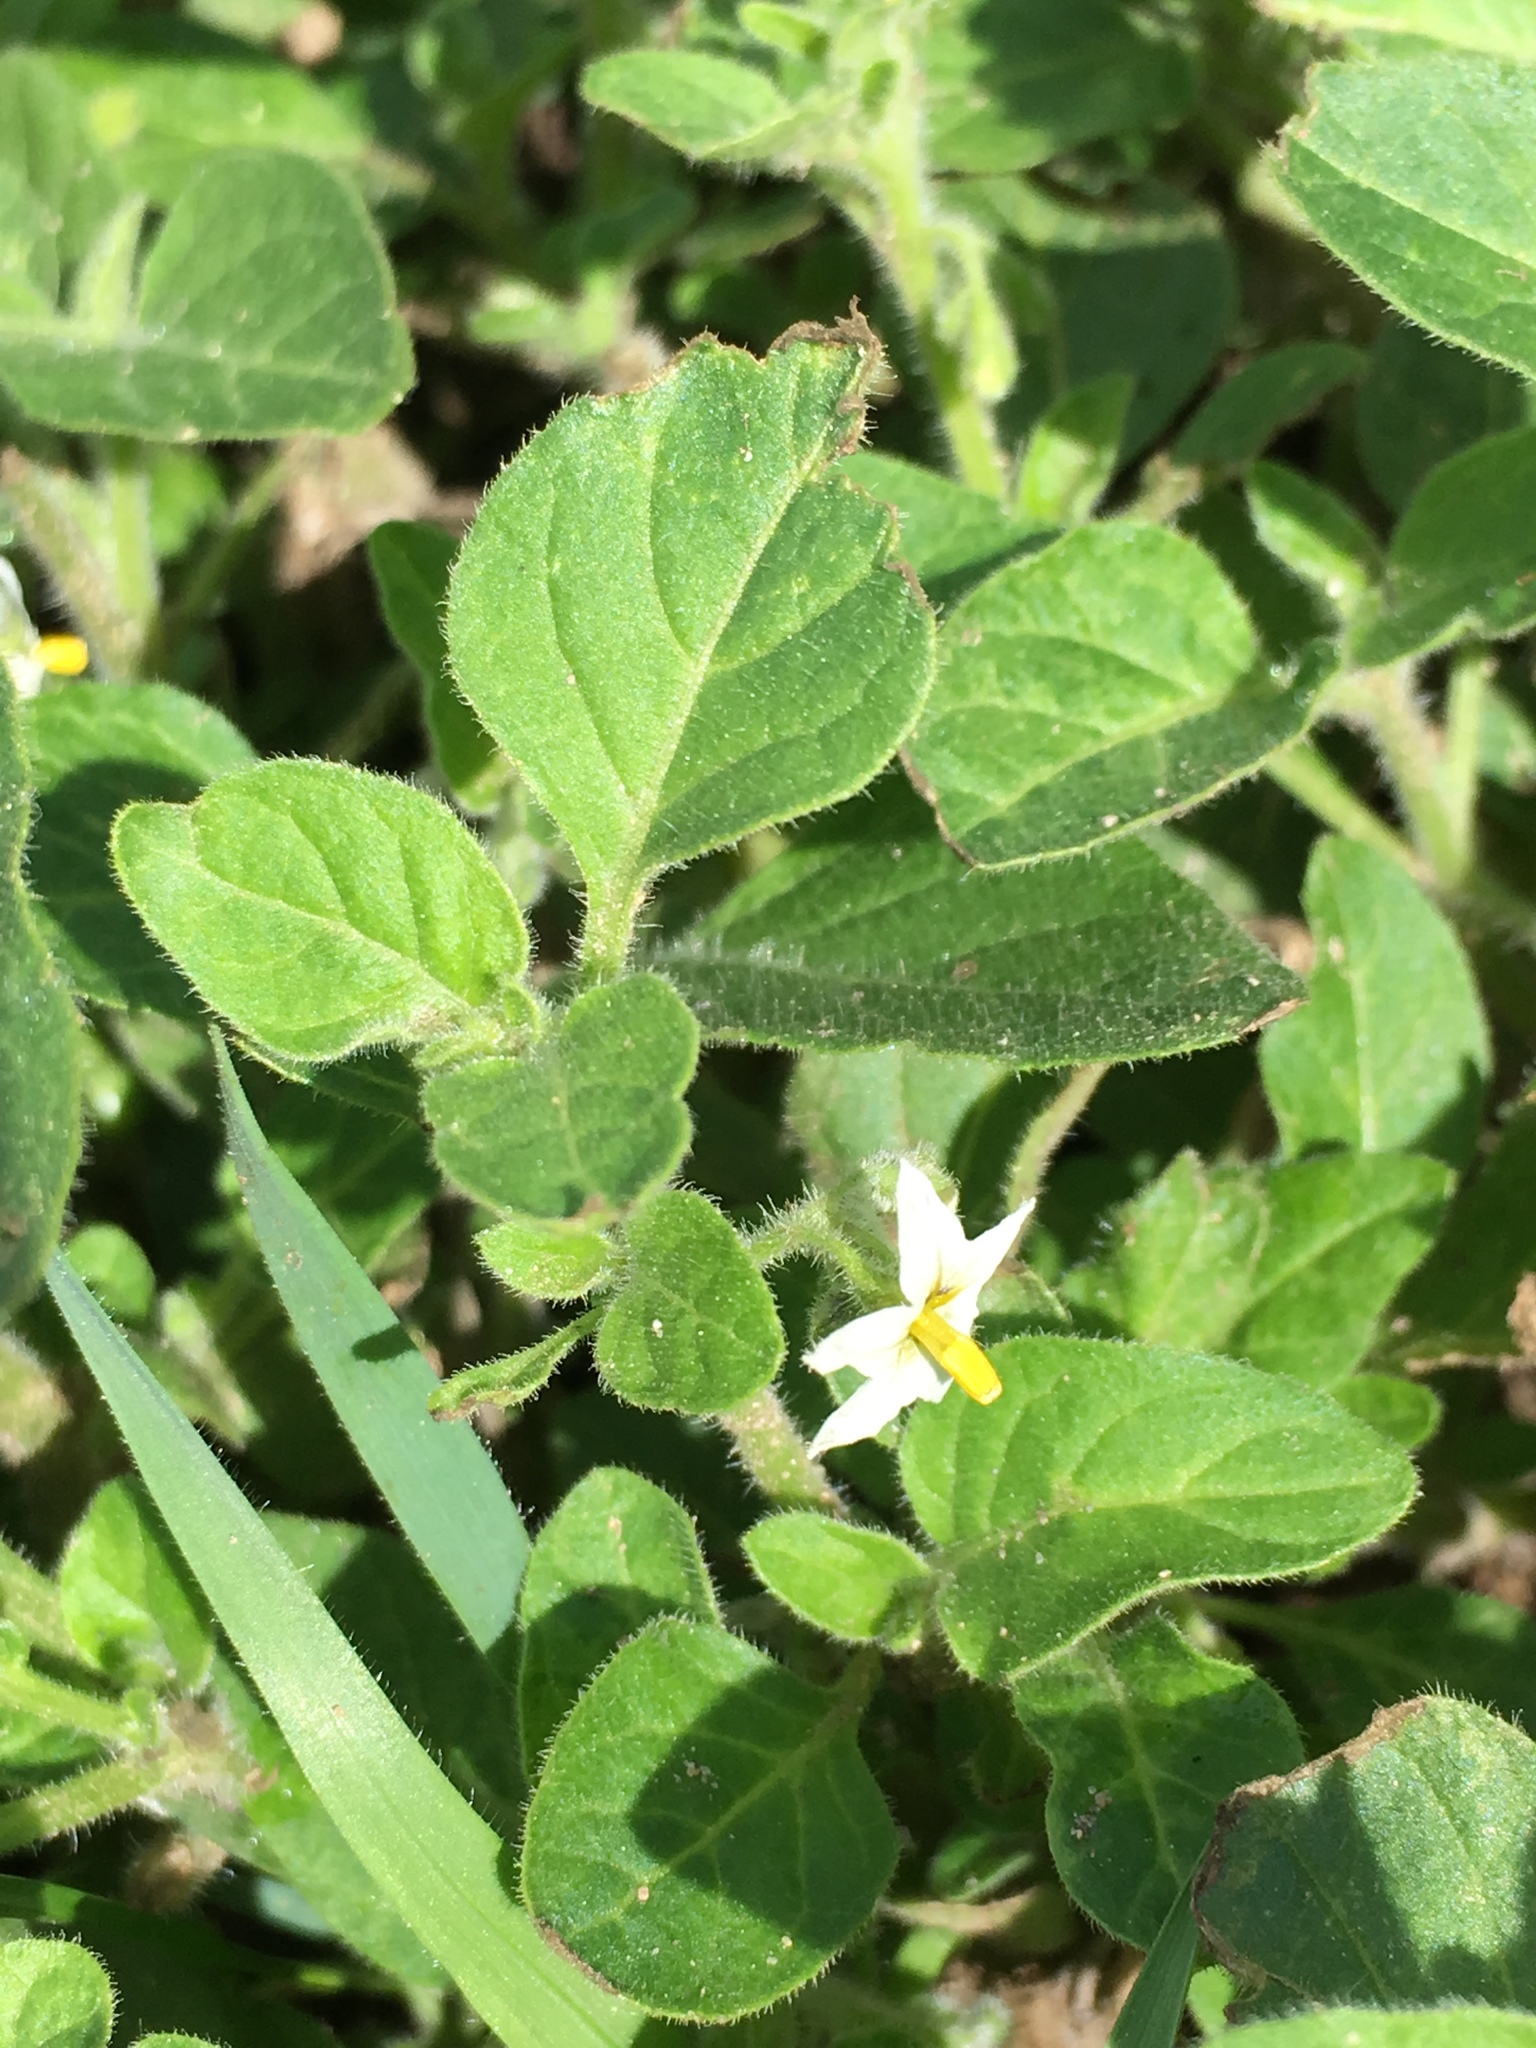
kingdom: Plantae
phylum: Tracheophyta
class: Magnoliopsida
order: Solanales
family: Solanaceae
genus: Solanum
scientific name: Solanum nitidibaccatum
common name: Hairy nightshade
